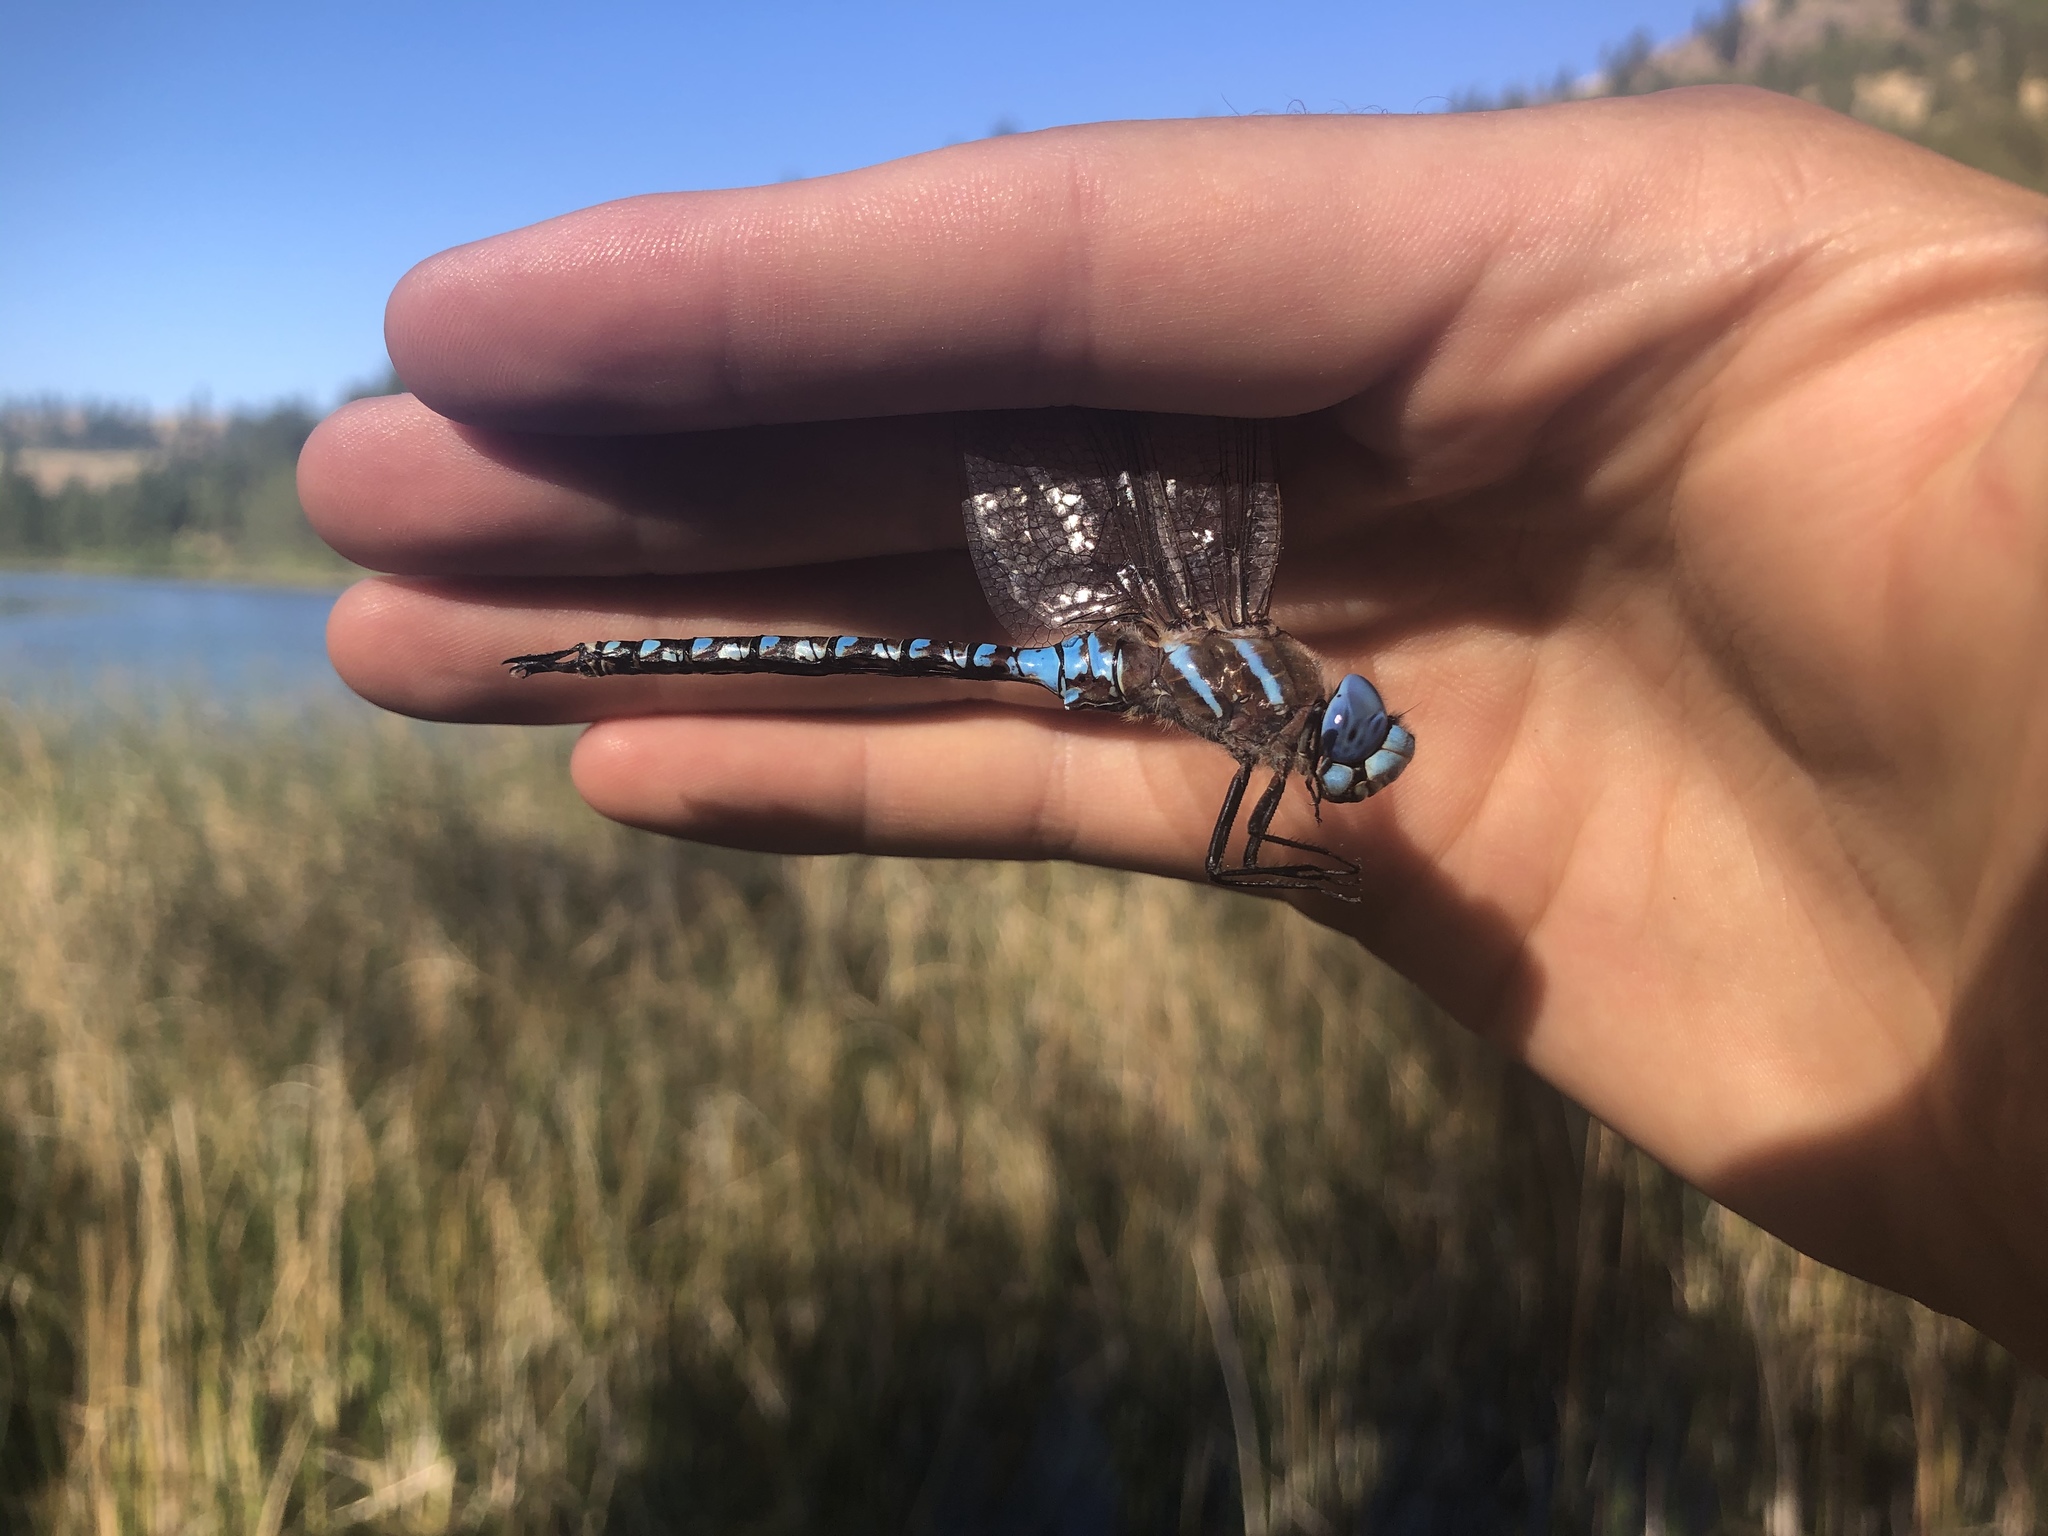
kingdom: Animalia
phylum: Arthropoda
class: Insecta
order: Odonata
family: Aeshnidae
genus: Rhionaeschna
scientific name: Rhionaeschna multicolor
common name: Blue-eyed darner
